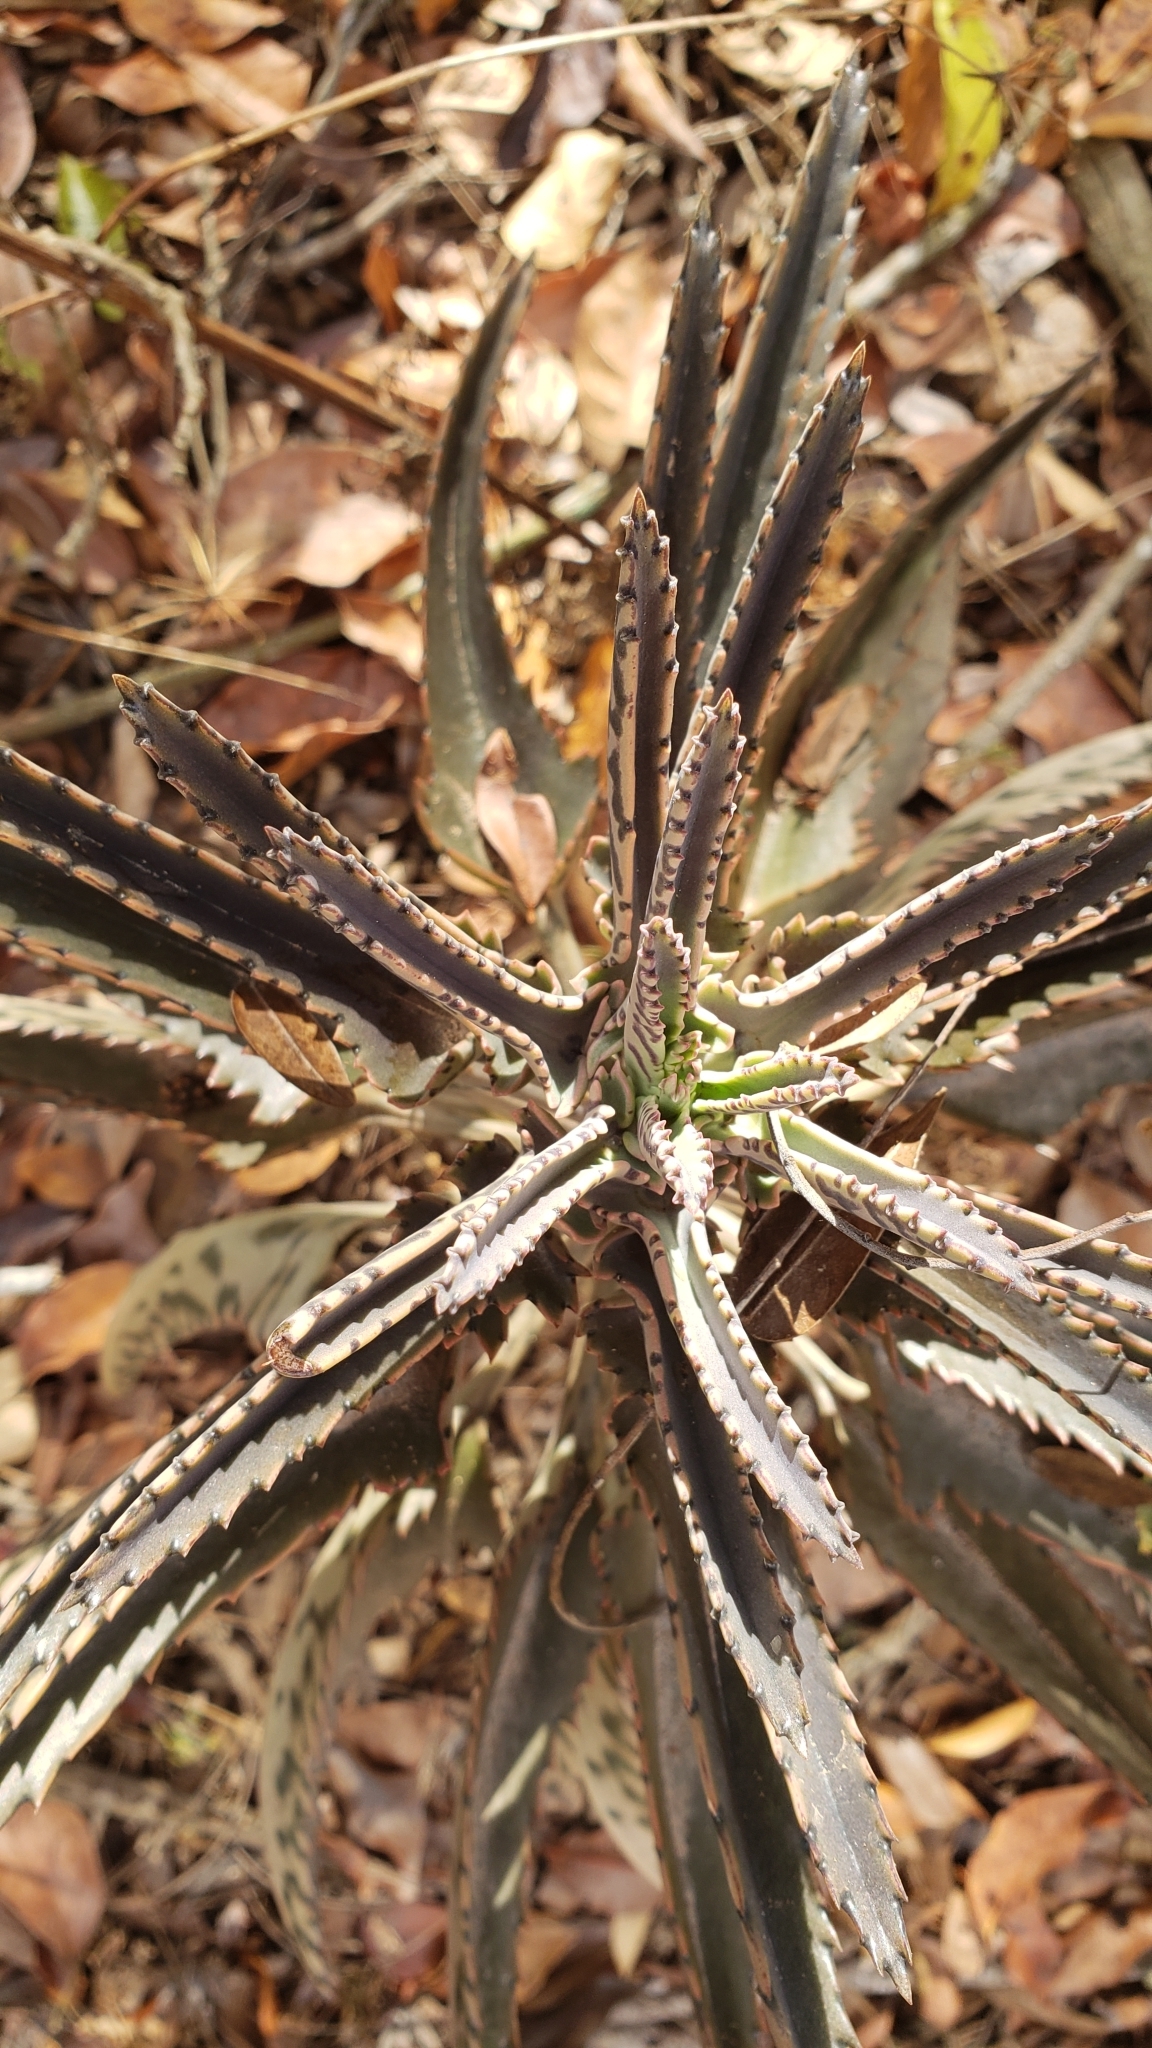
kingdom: Plantae
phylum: Tracheophyta
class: Magnoliopsida
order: Saxifragales
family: Crassulaceae
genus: Kalanchoe
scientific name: Kalanchoe houghtonii
